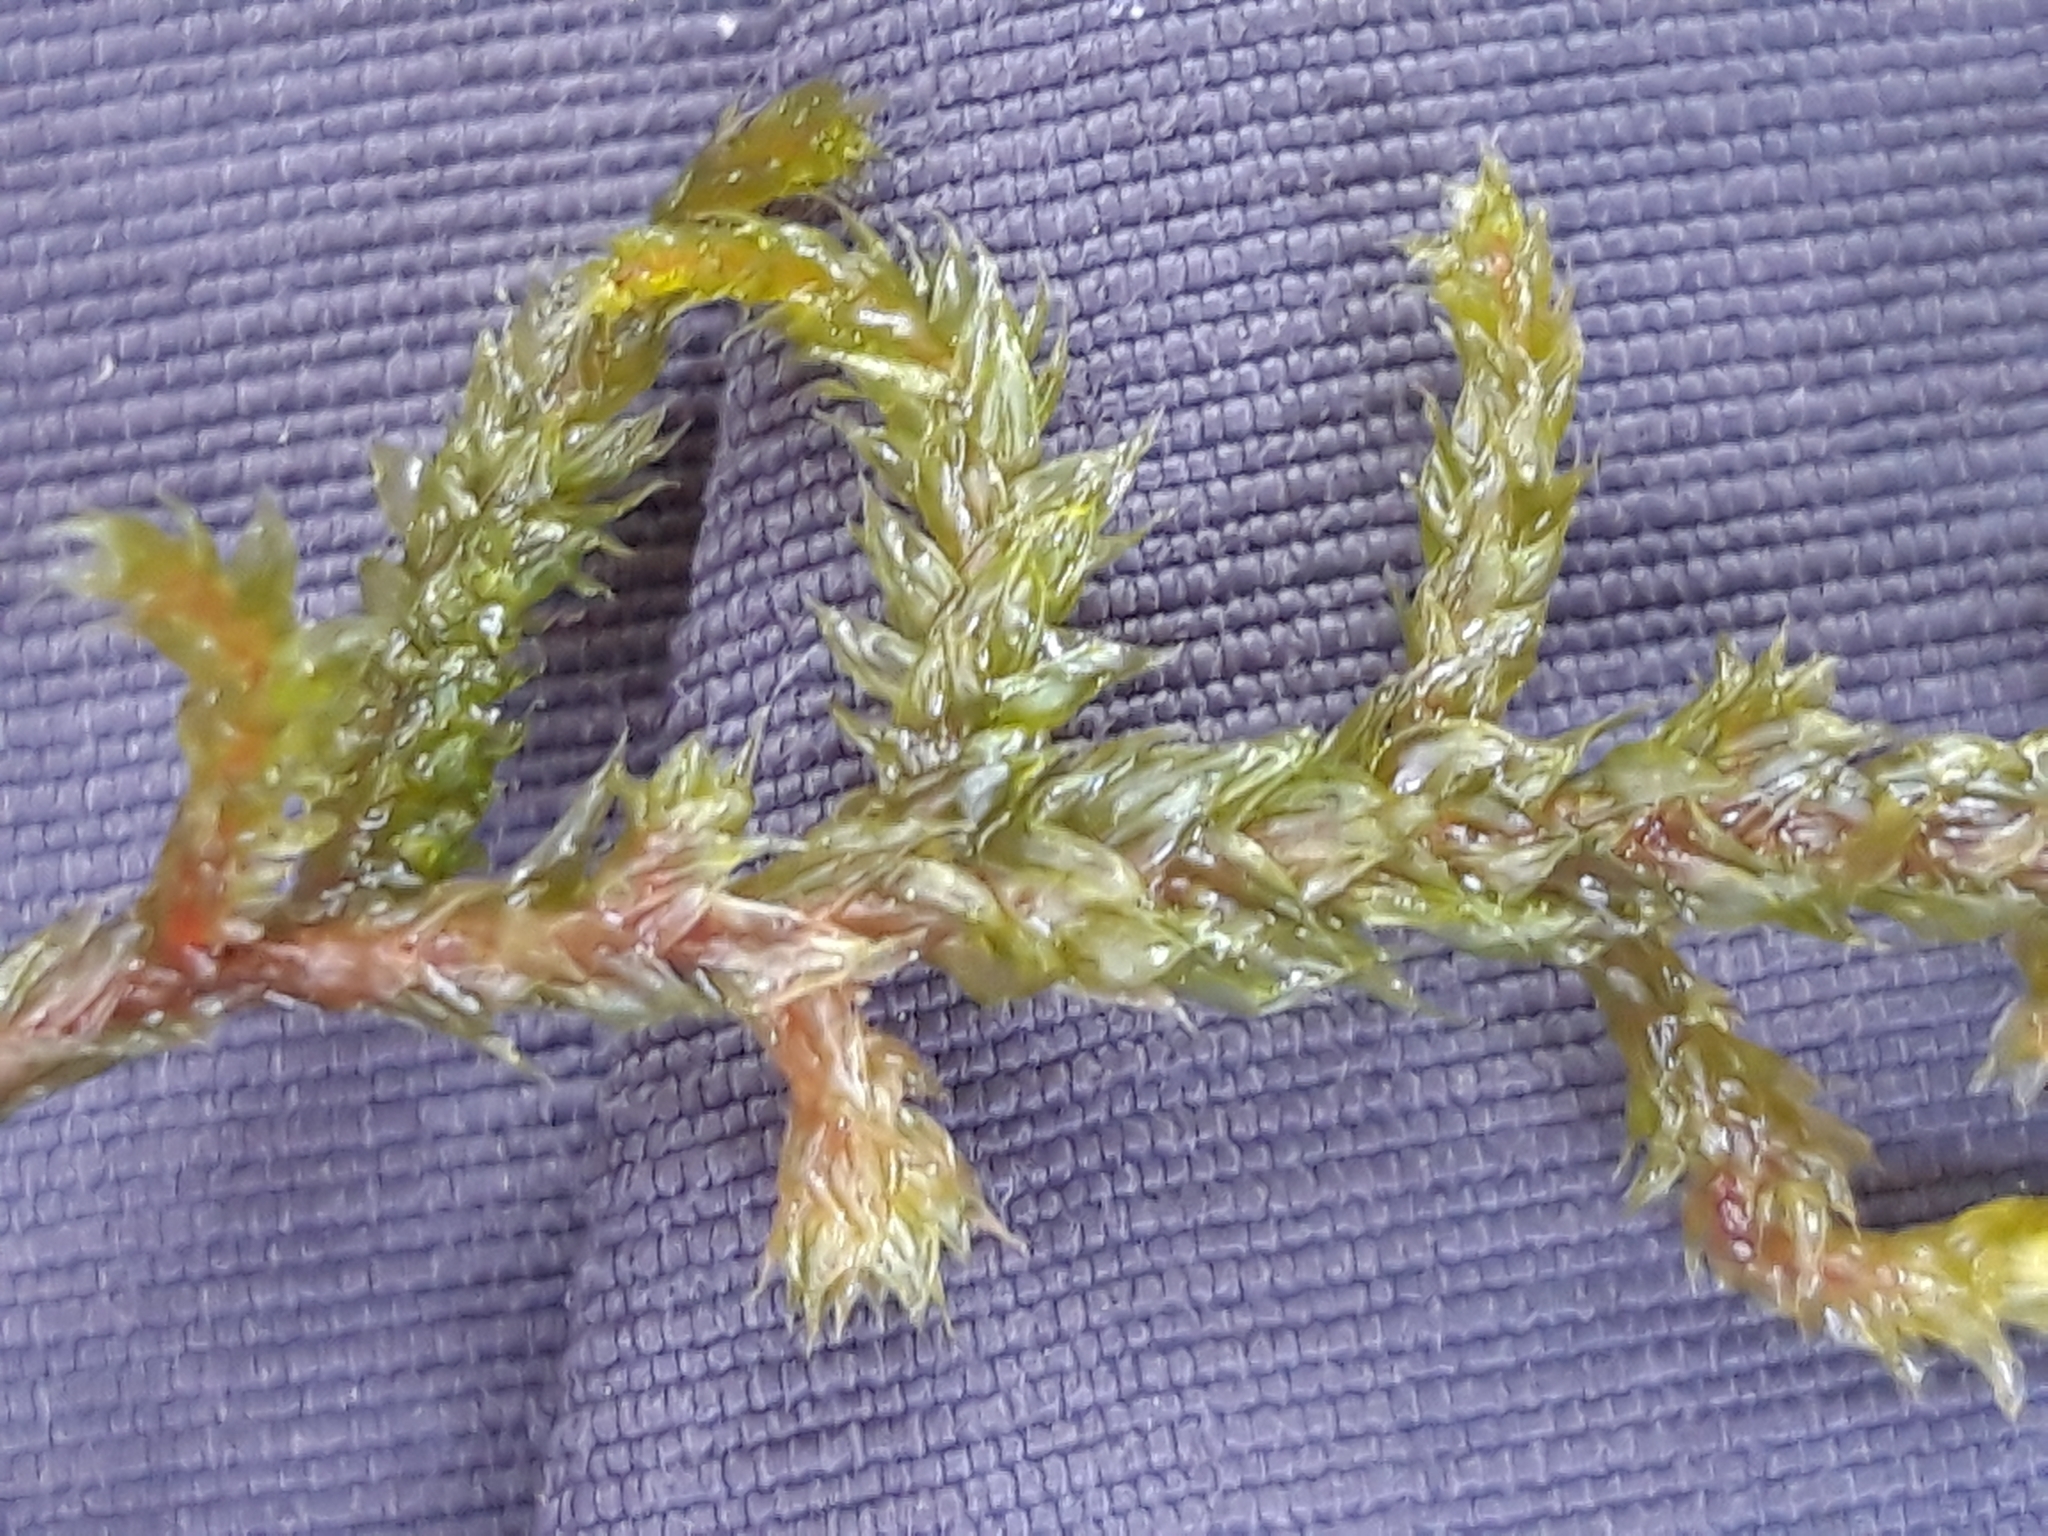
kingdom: Plantae
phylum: Bryophyta
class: Bryopsida
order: Hypnales
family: Antitrichiaceae
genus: Antitrichia
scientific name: Antitrichia californica
